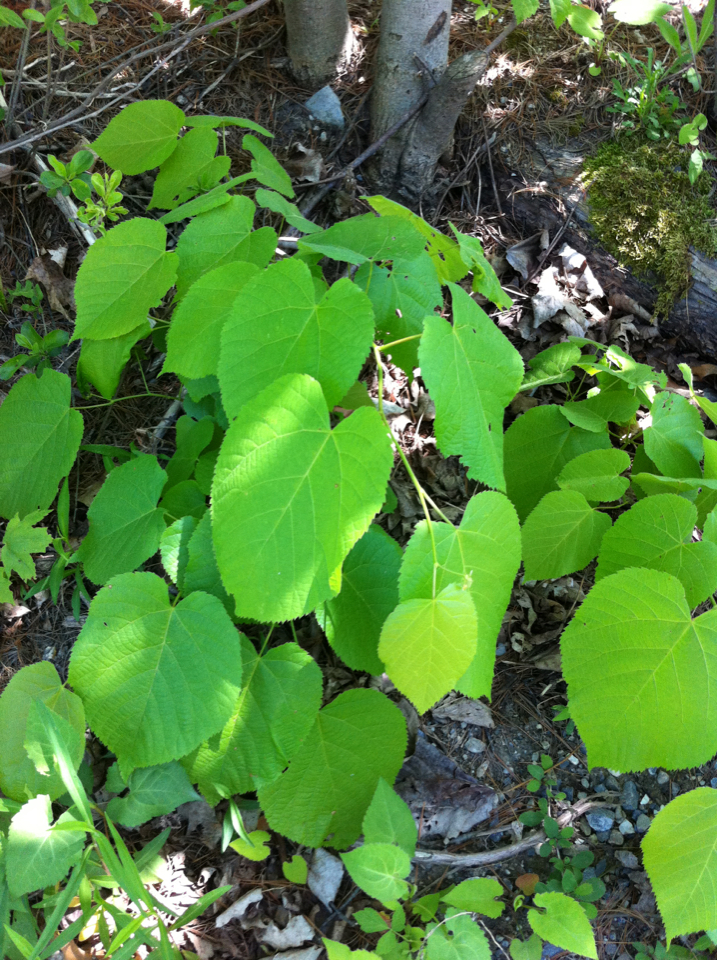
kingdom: Plantae
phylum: Tracheophyta
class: Magnoliopsida
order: Malvales
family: Malvaceae
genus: Tilia
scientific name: Tilia americana
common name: Basswood
